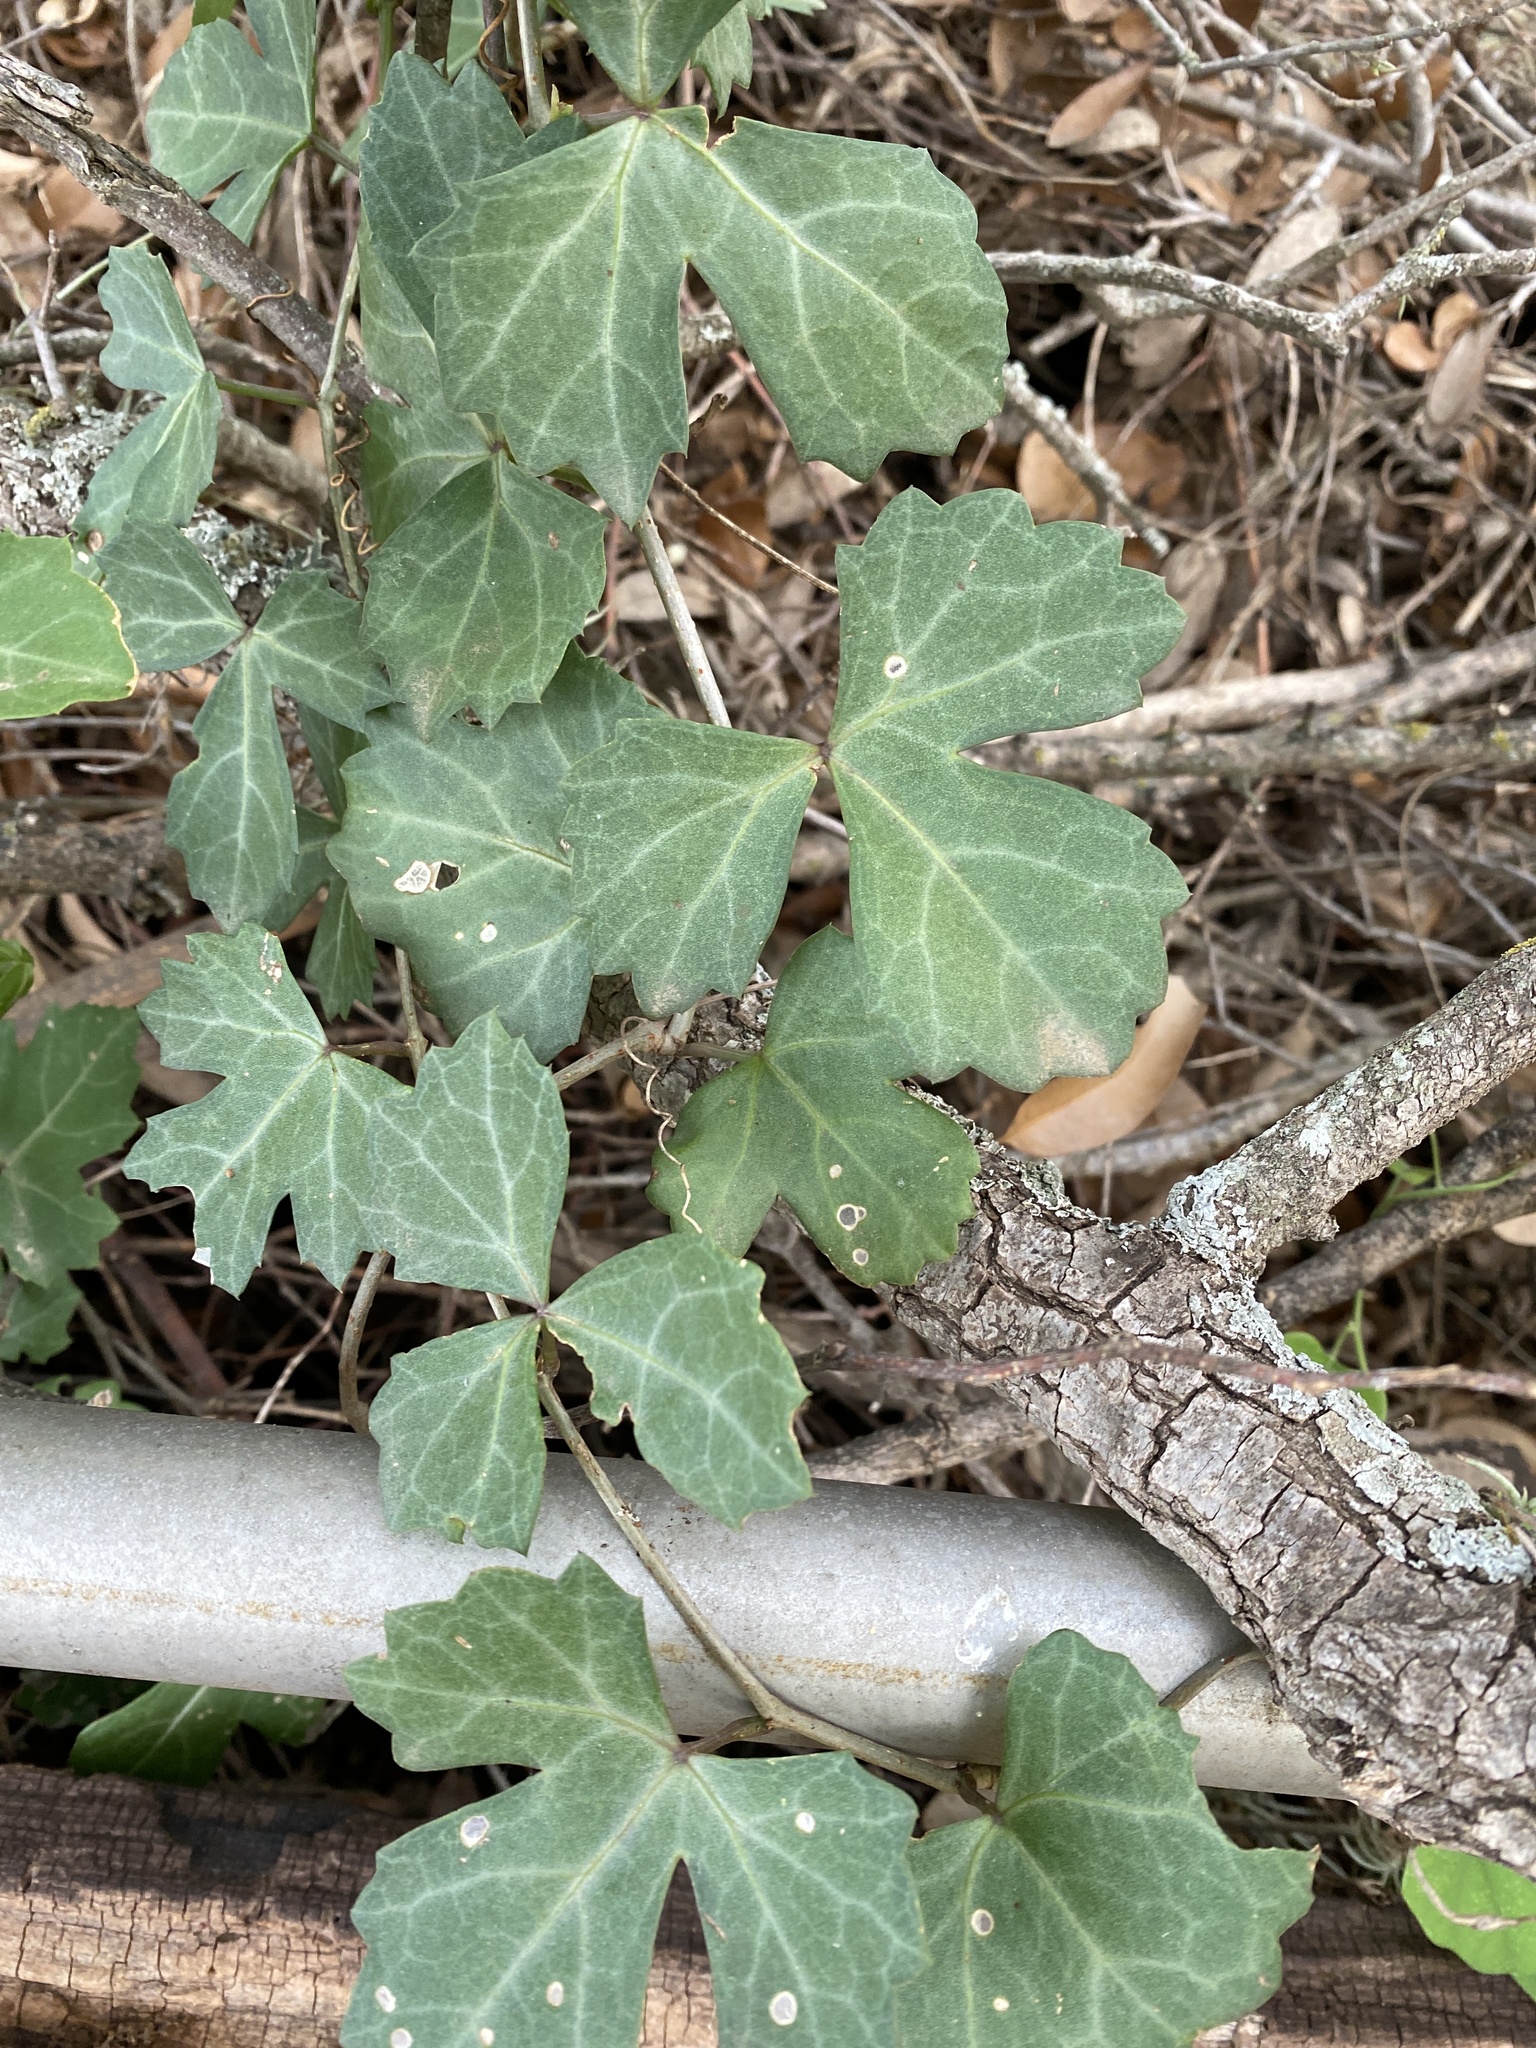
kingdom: Plantae
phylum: Tracheophyta
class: Magnoliopsida
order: Vitales
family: Vitaceae
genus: Cissus
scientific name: Cissus trifoliata
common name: Vine-sorrel
